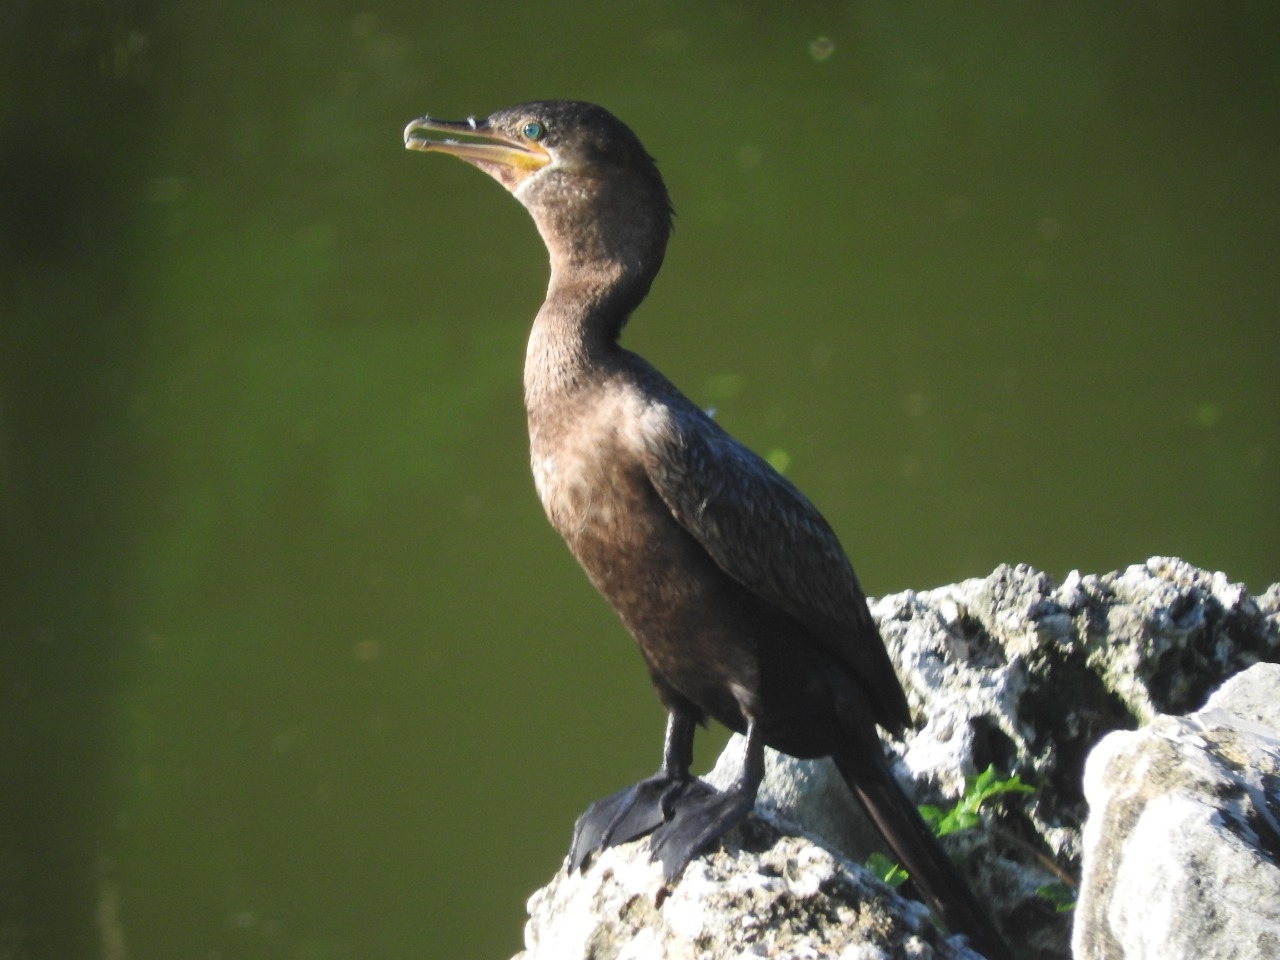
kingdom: Animalia
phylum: Chordata
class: Aves
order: Suliformes
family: Phalacrocoracidae
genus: Phalacrocorax
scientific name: Phalacrocorax brasilianus
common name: Neotropic cormorant
